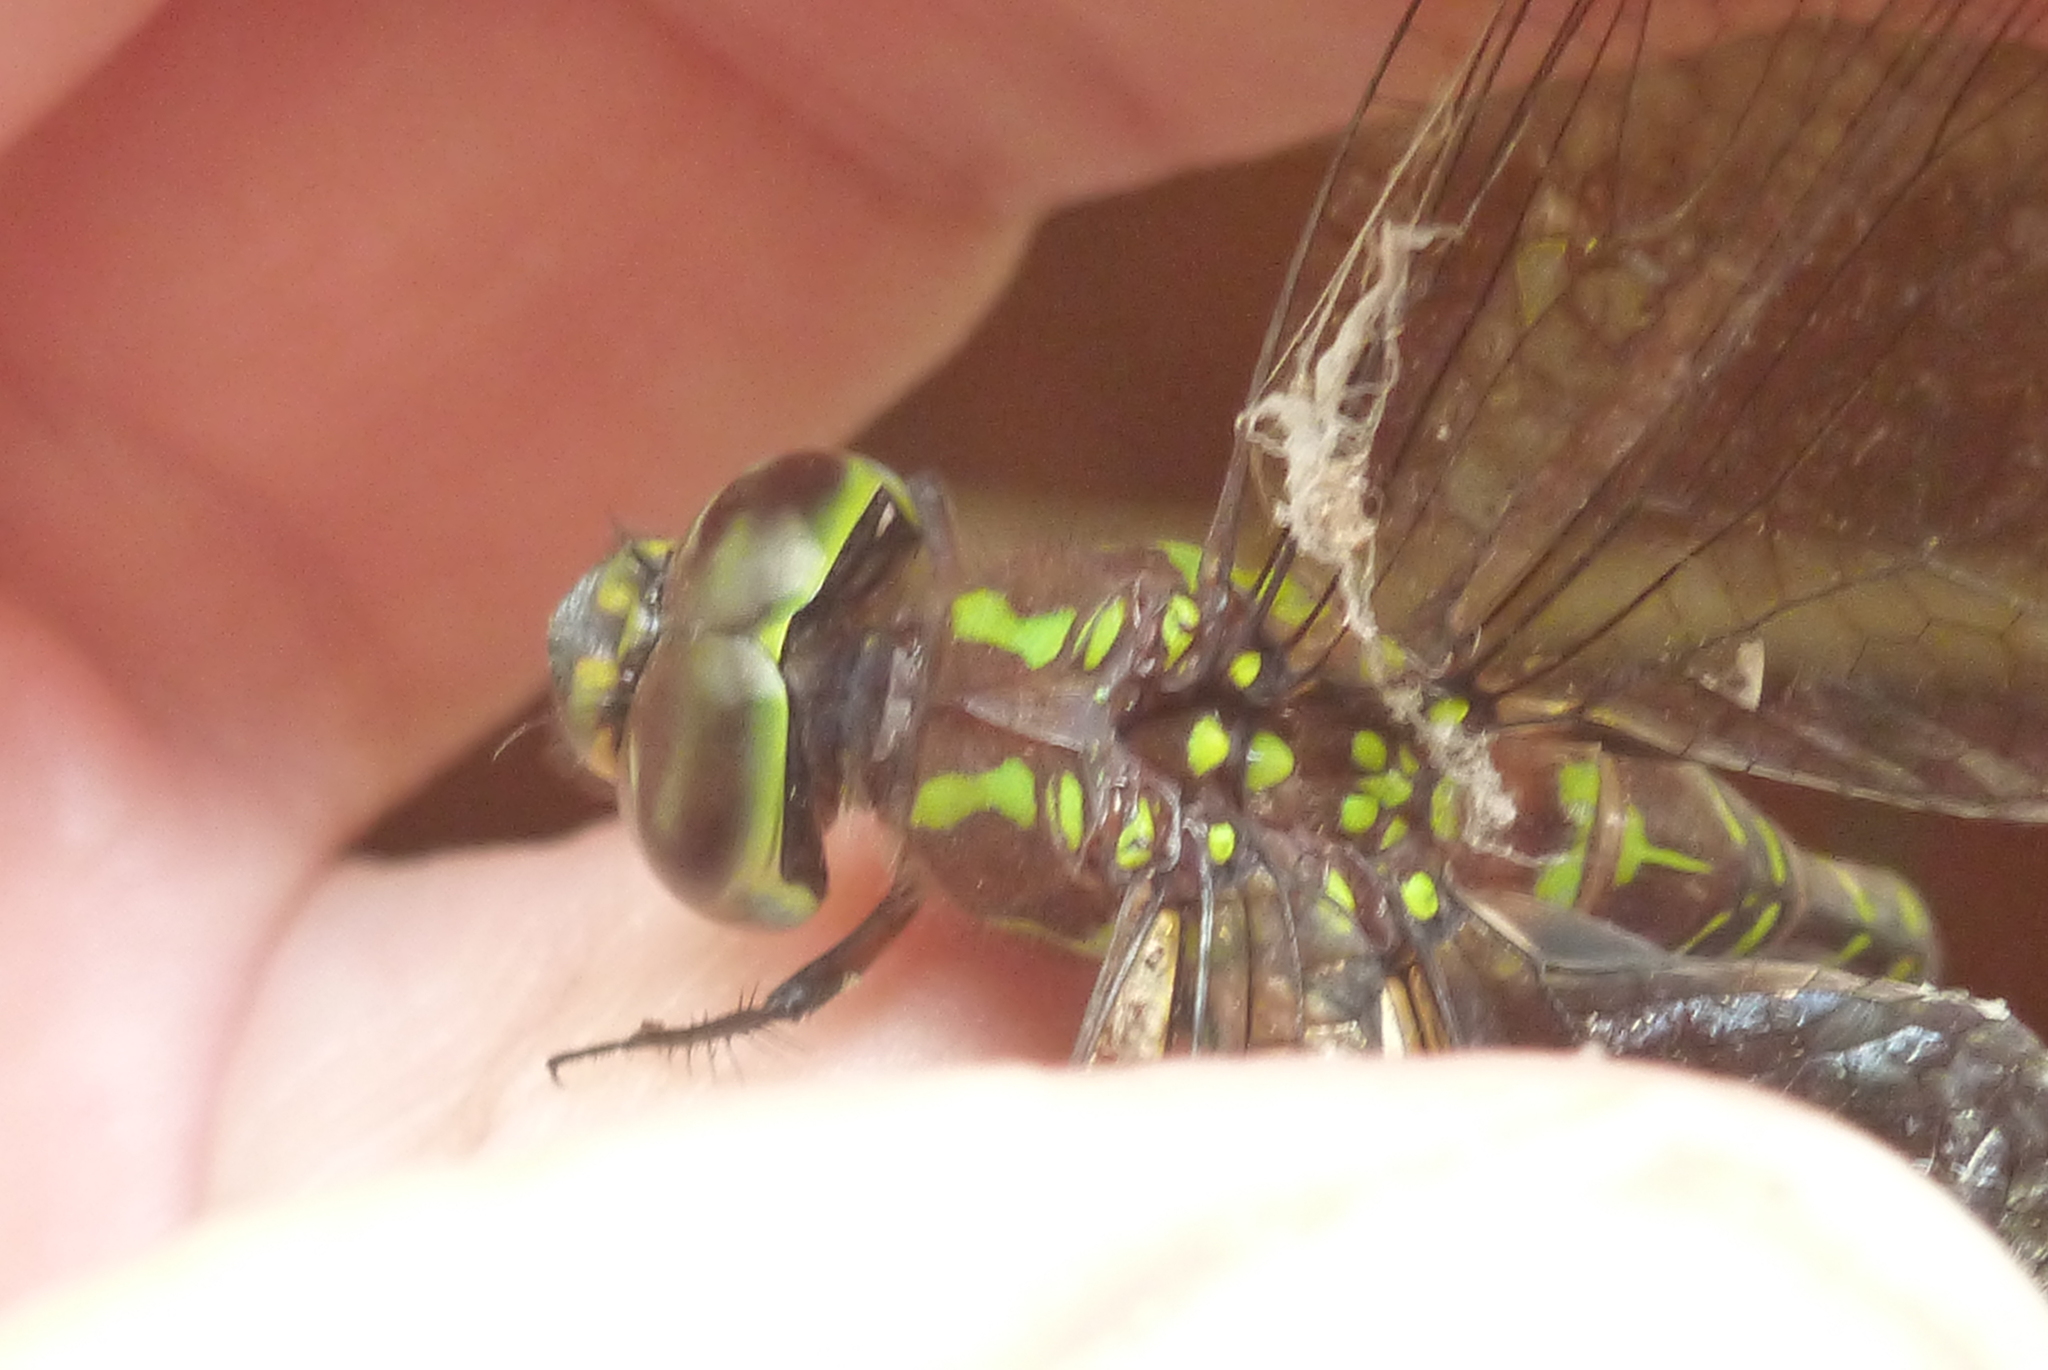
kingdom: Animalia
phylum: Arthropoda
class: Insecta
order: Odonata
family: Aeshnidae
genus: Rhionaeschna
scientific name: Rhionaeschna psilus
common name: Turquoise-tipped darner
